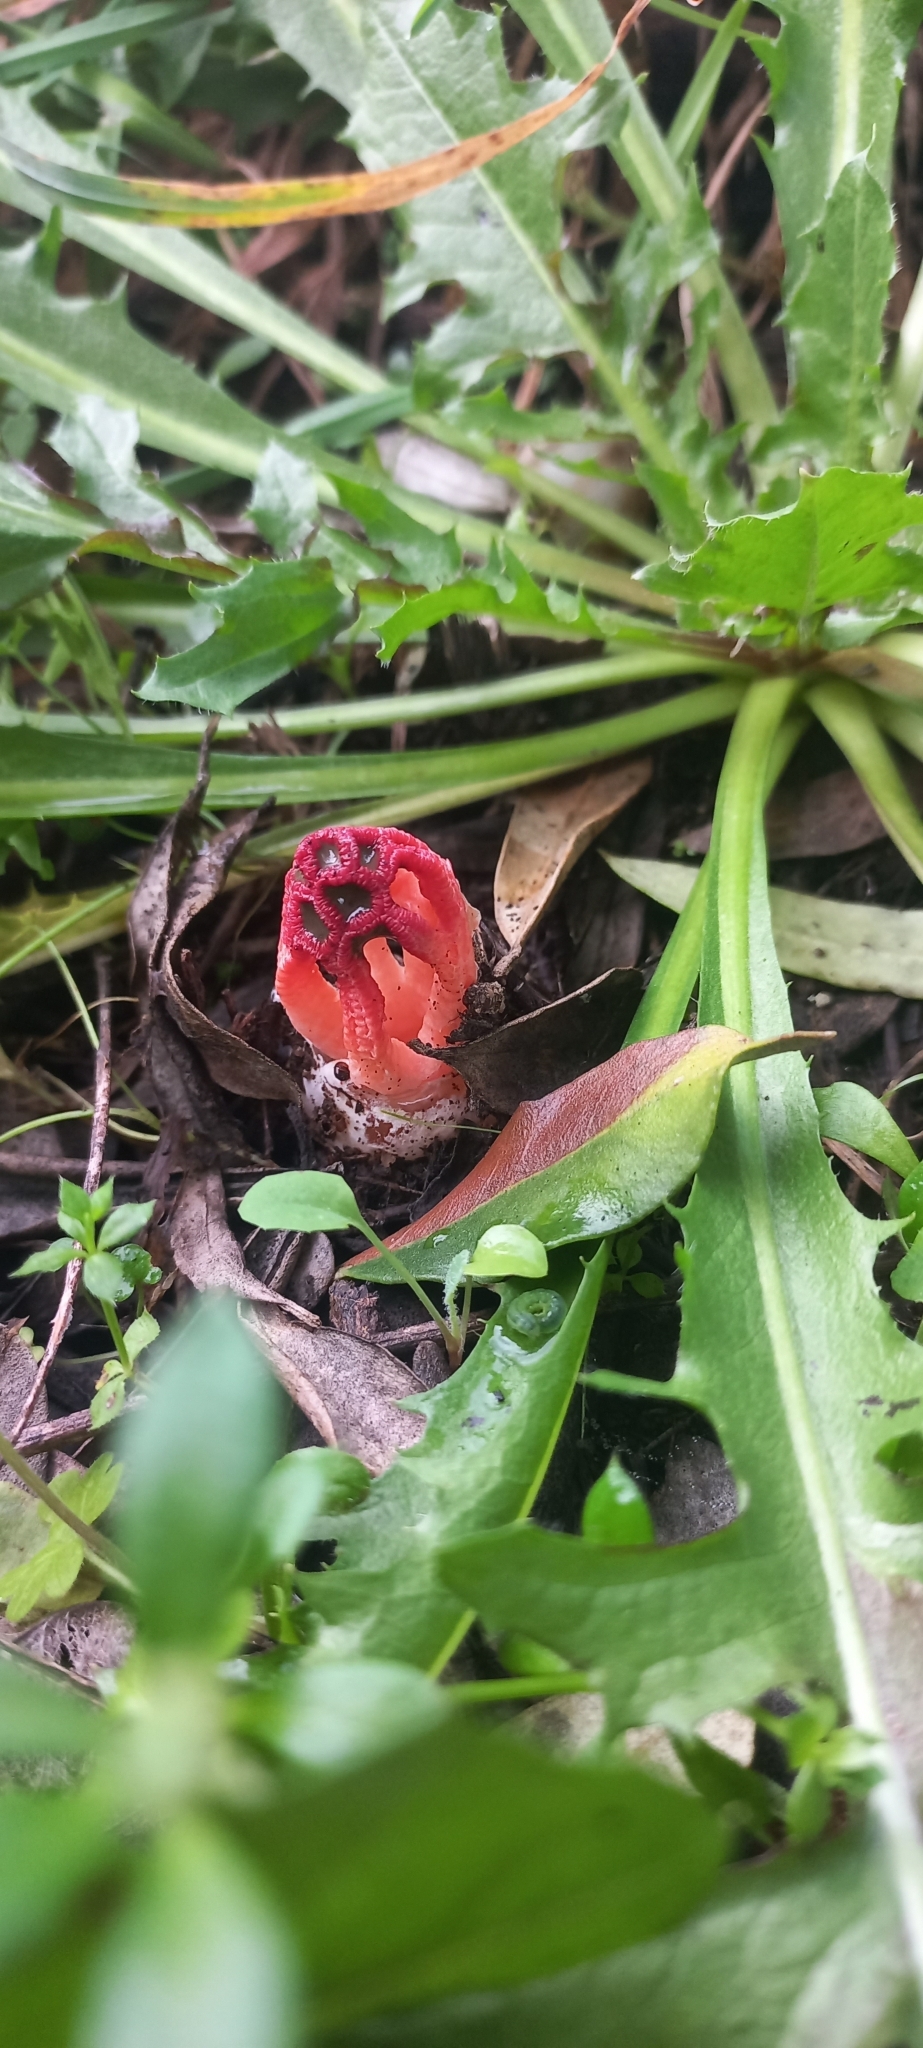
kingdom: Fungi
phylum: Basidiomycota
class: Agaricomycetes
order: Phallales
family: Phallaceae
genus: Colus
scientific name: Colus hirudinosus
